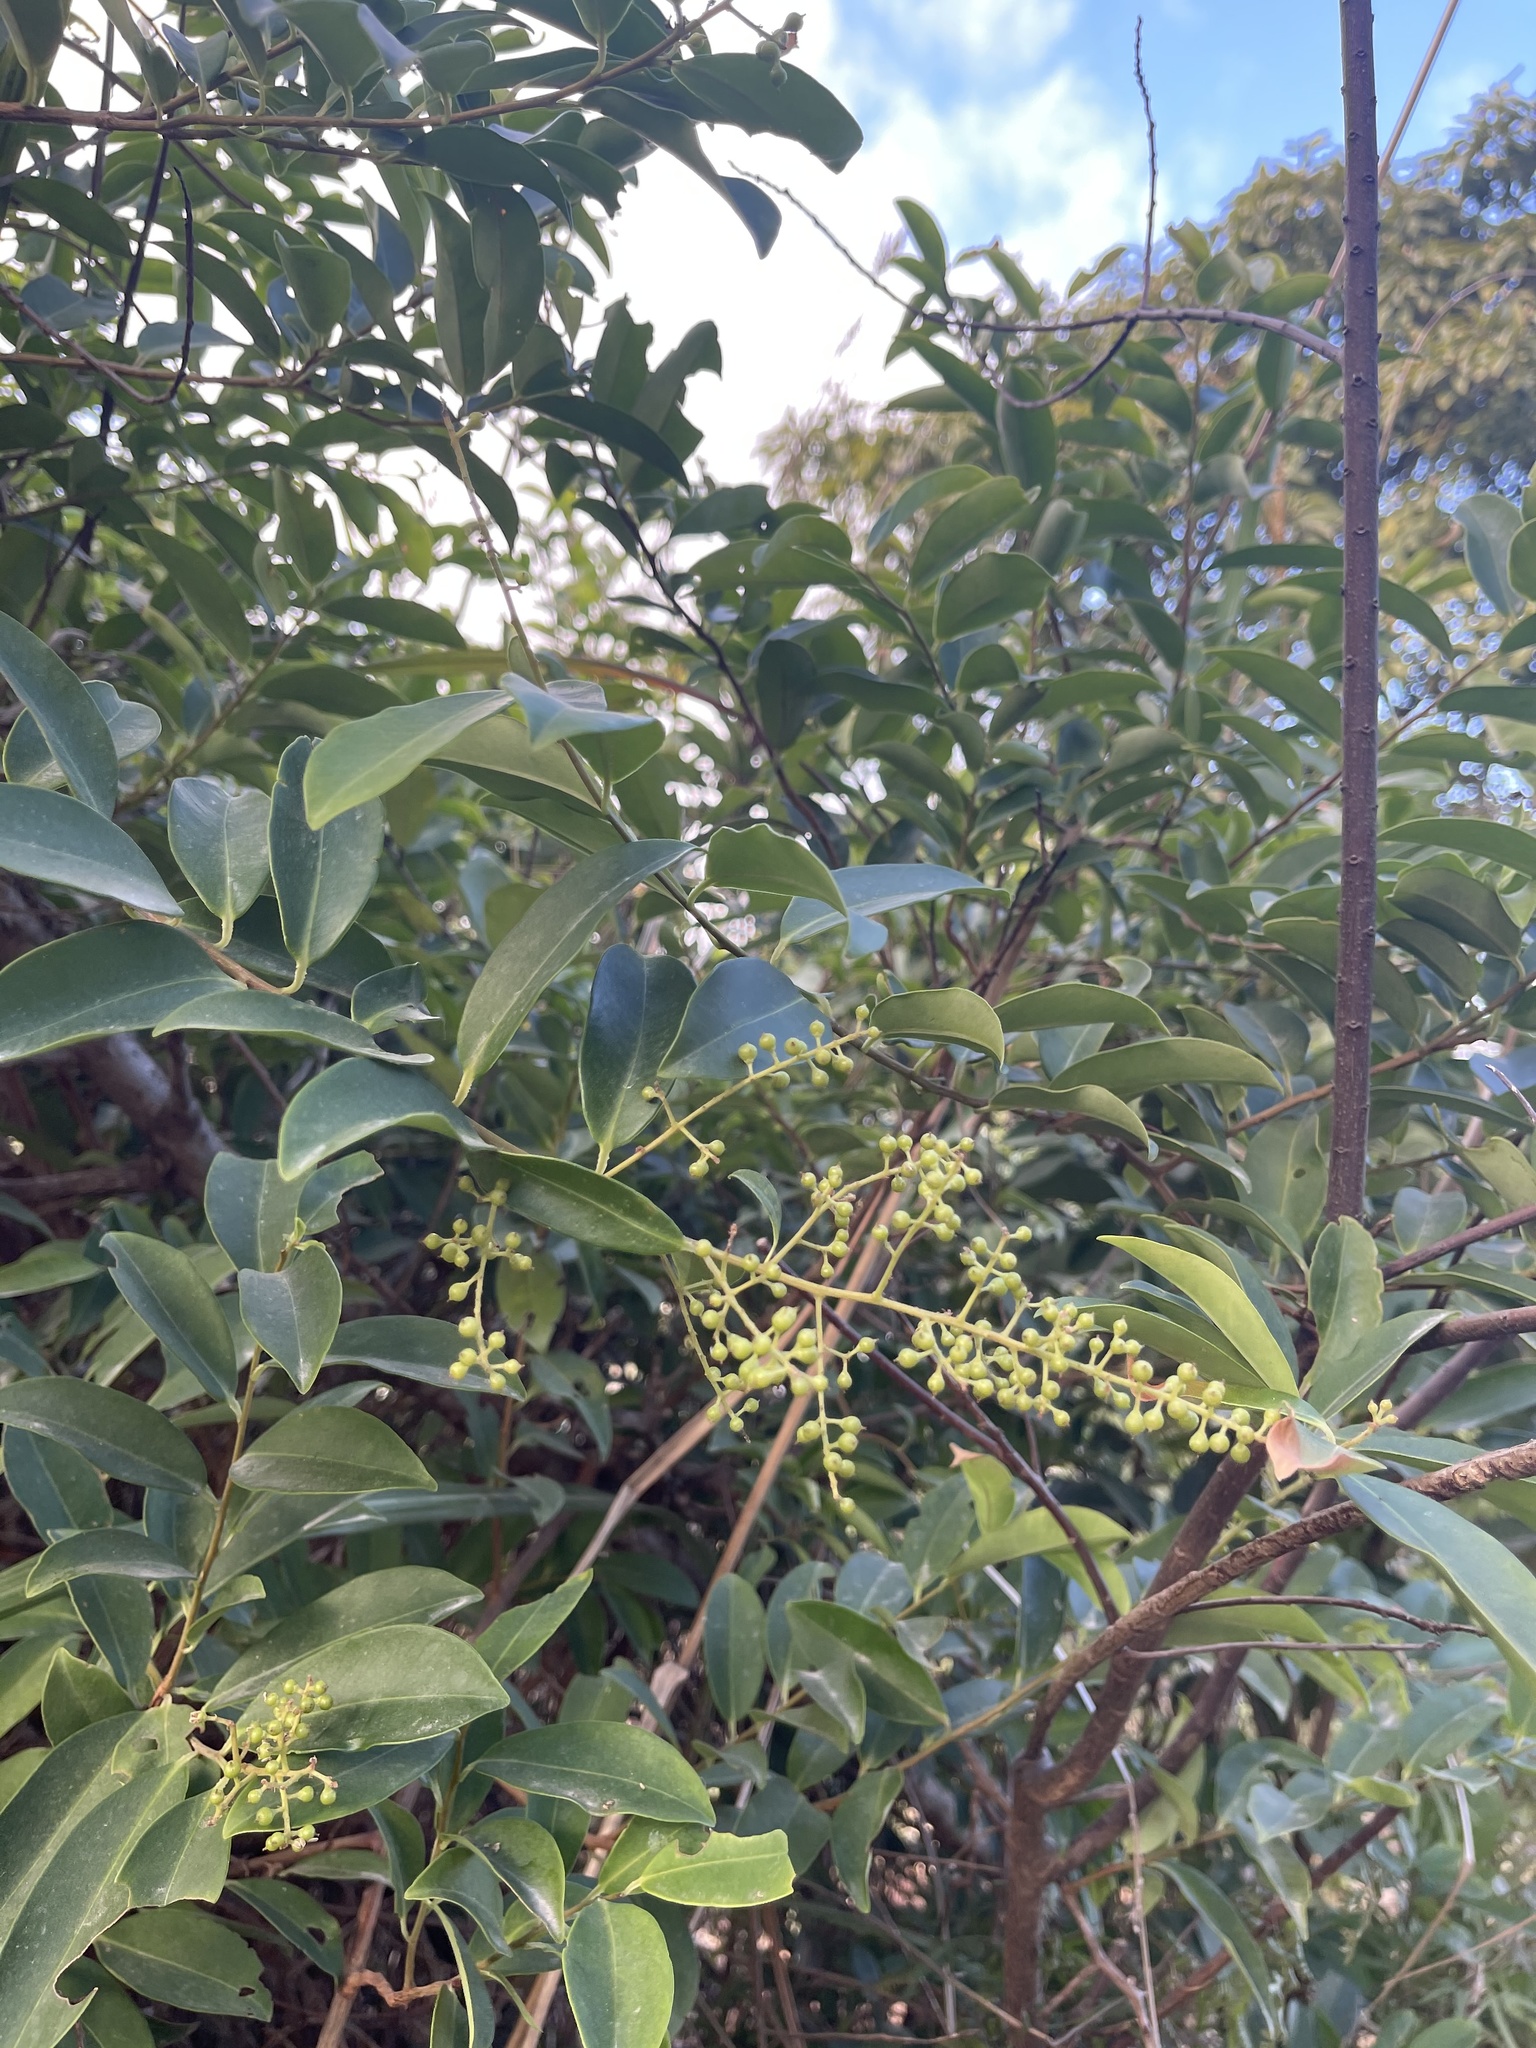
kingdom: Plantae
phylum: Tracheophyta
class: Magnoliopsida
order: Ericales
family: Primulaceae
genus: Embelia
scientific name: Embelia ribes
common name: Vidanga
